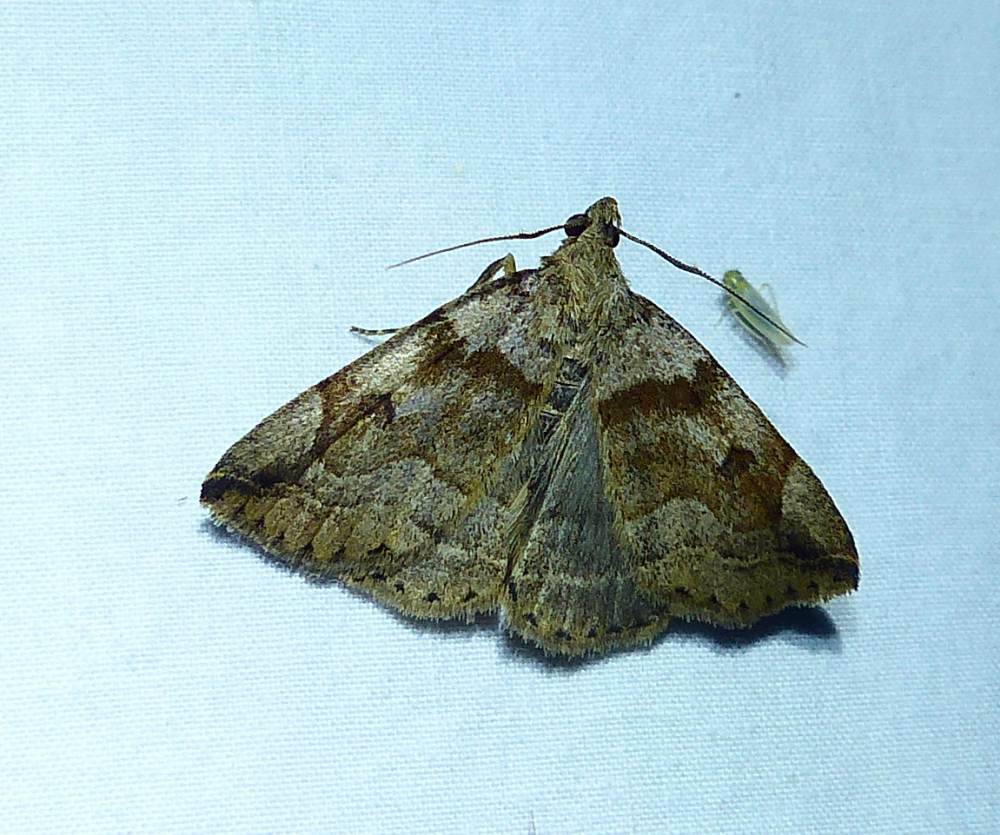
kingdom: Animalia
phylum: Arthropoda
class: Insecta
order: Lepidoptera
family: Erebidae
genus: Zanclognatha
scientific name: Zanclognatha laevigata
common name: Variable fan-foot
